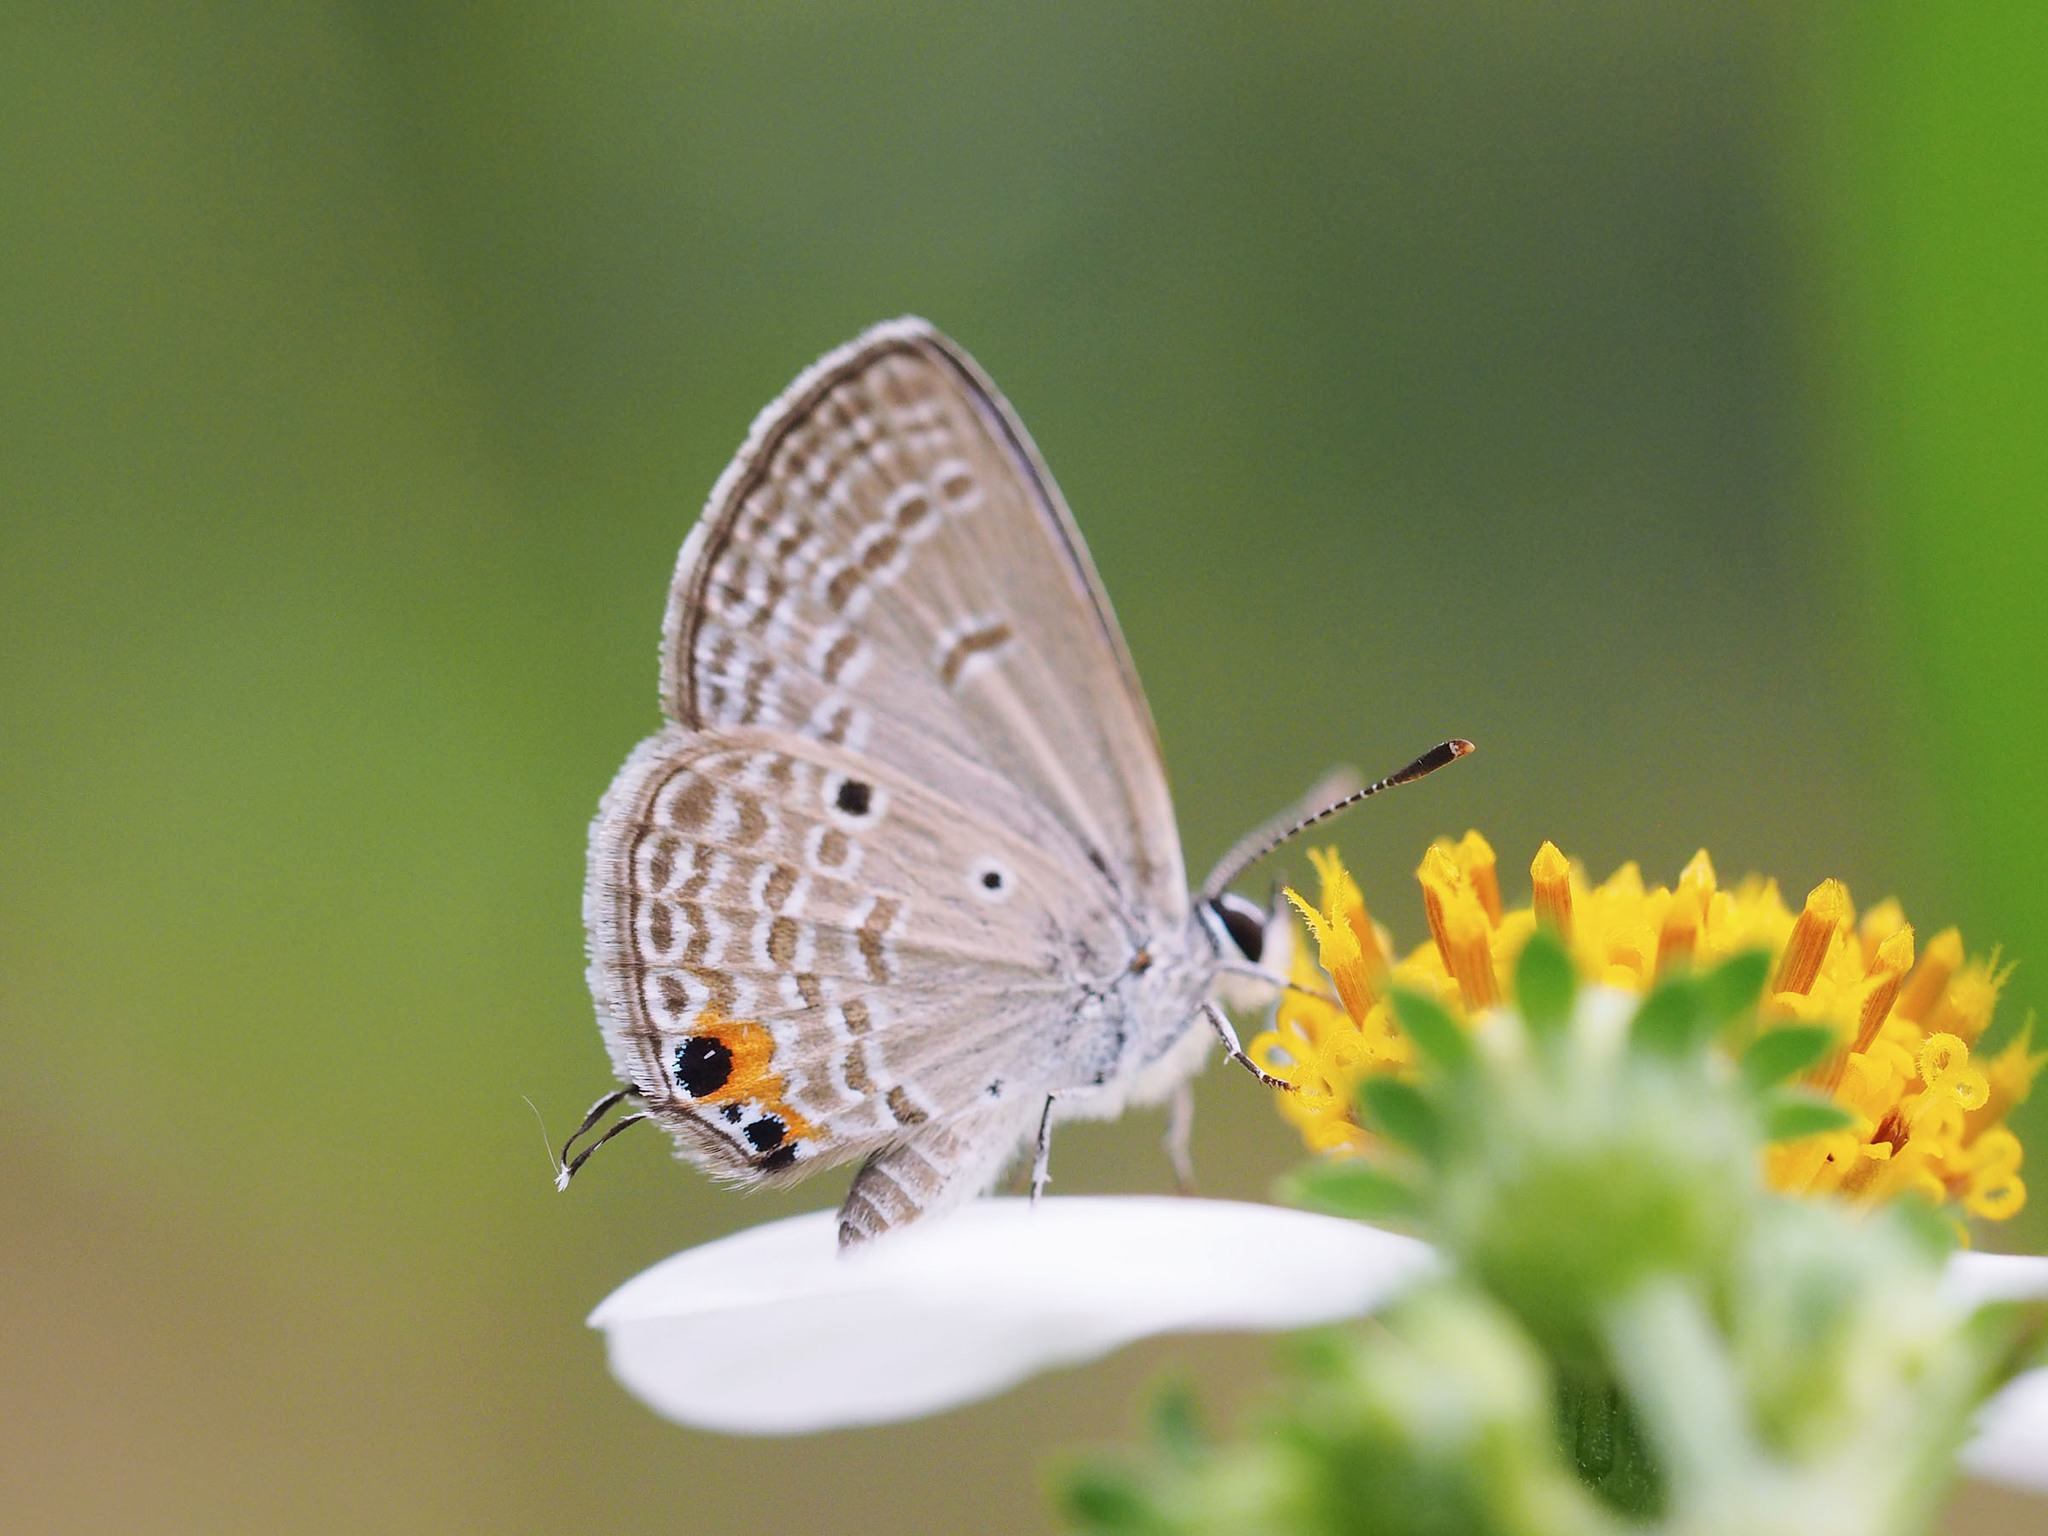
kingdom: Animalia
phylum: Arthropoda
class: Insecta
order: Lepidoptera
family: Lycaenidae
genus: Luthrodes
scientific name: Luthrodes pandava
